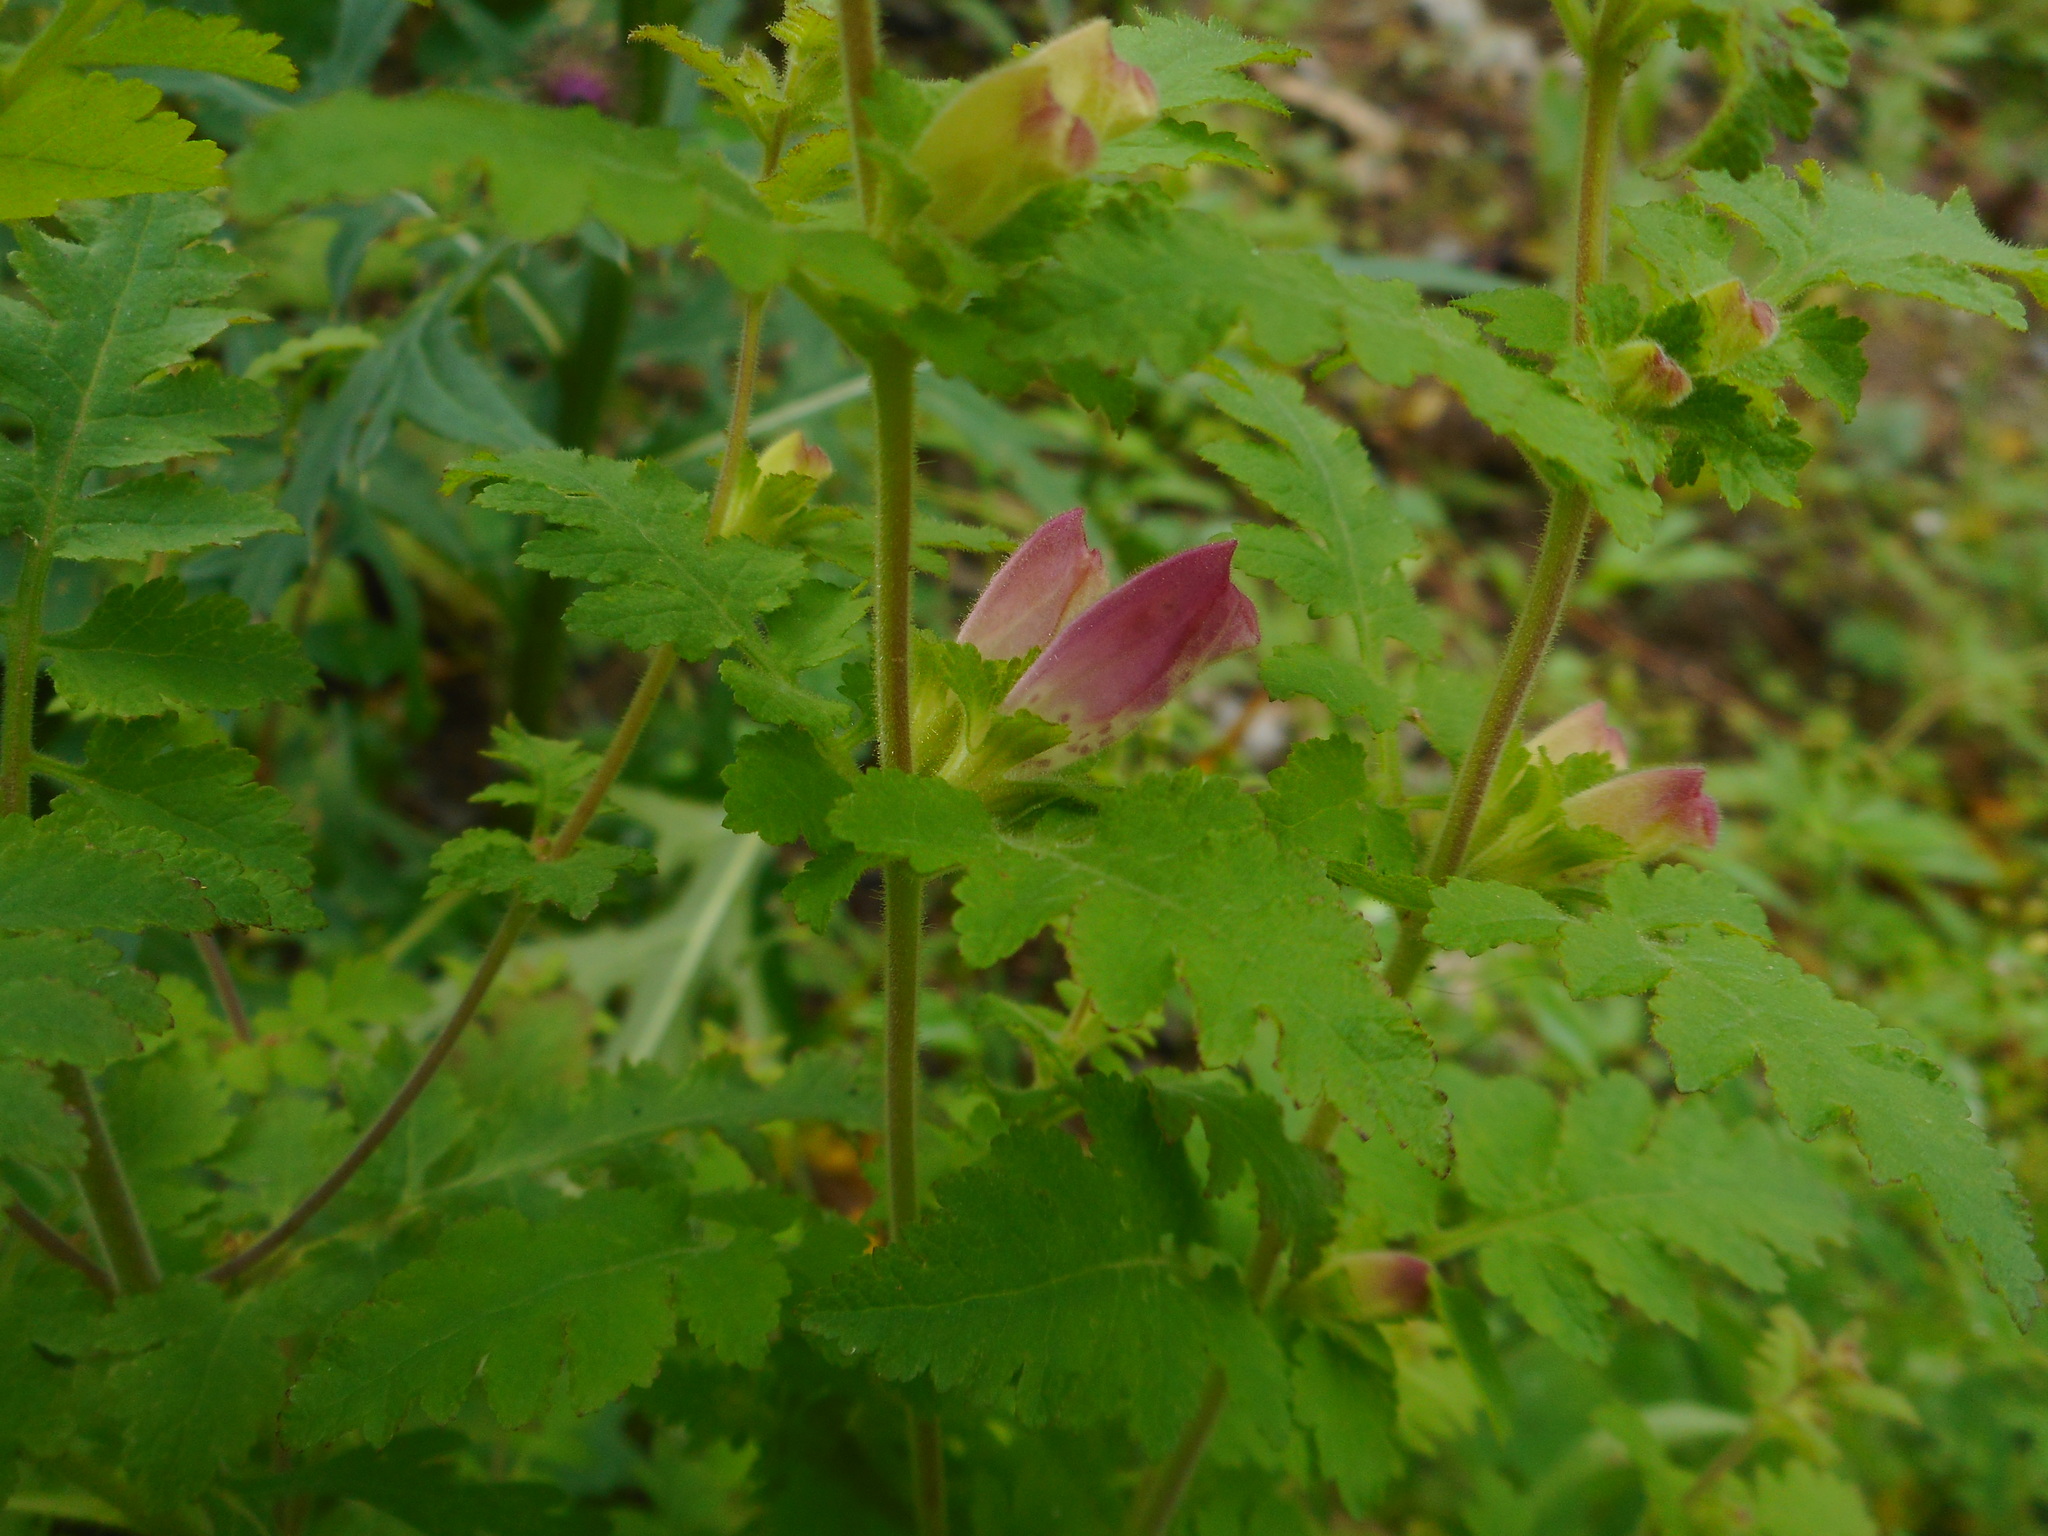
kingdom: Plantae
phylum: Tracheophyta
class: Magnoliopsida
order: Lamiales
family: Orobanchaceae
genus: Phtheirospermum
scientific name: Phtheirospermum japonicum
